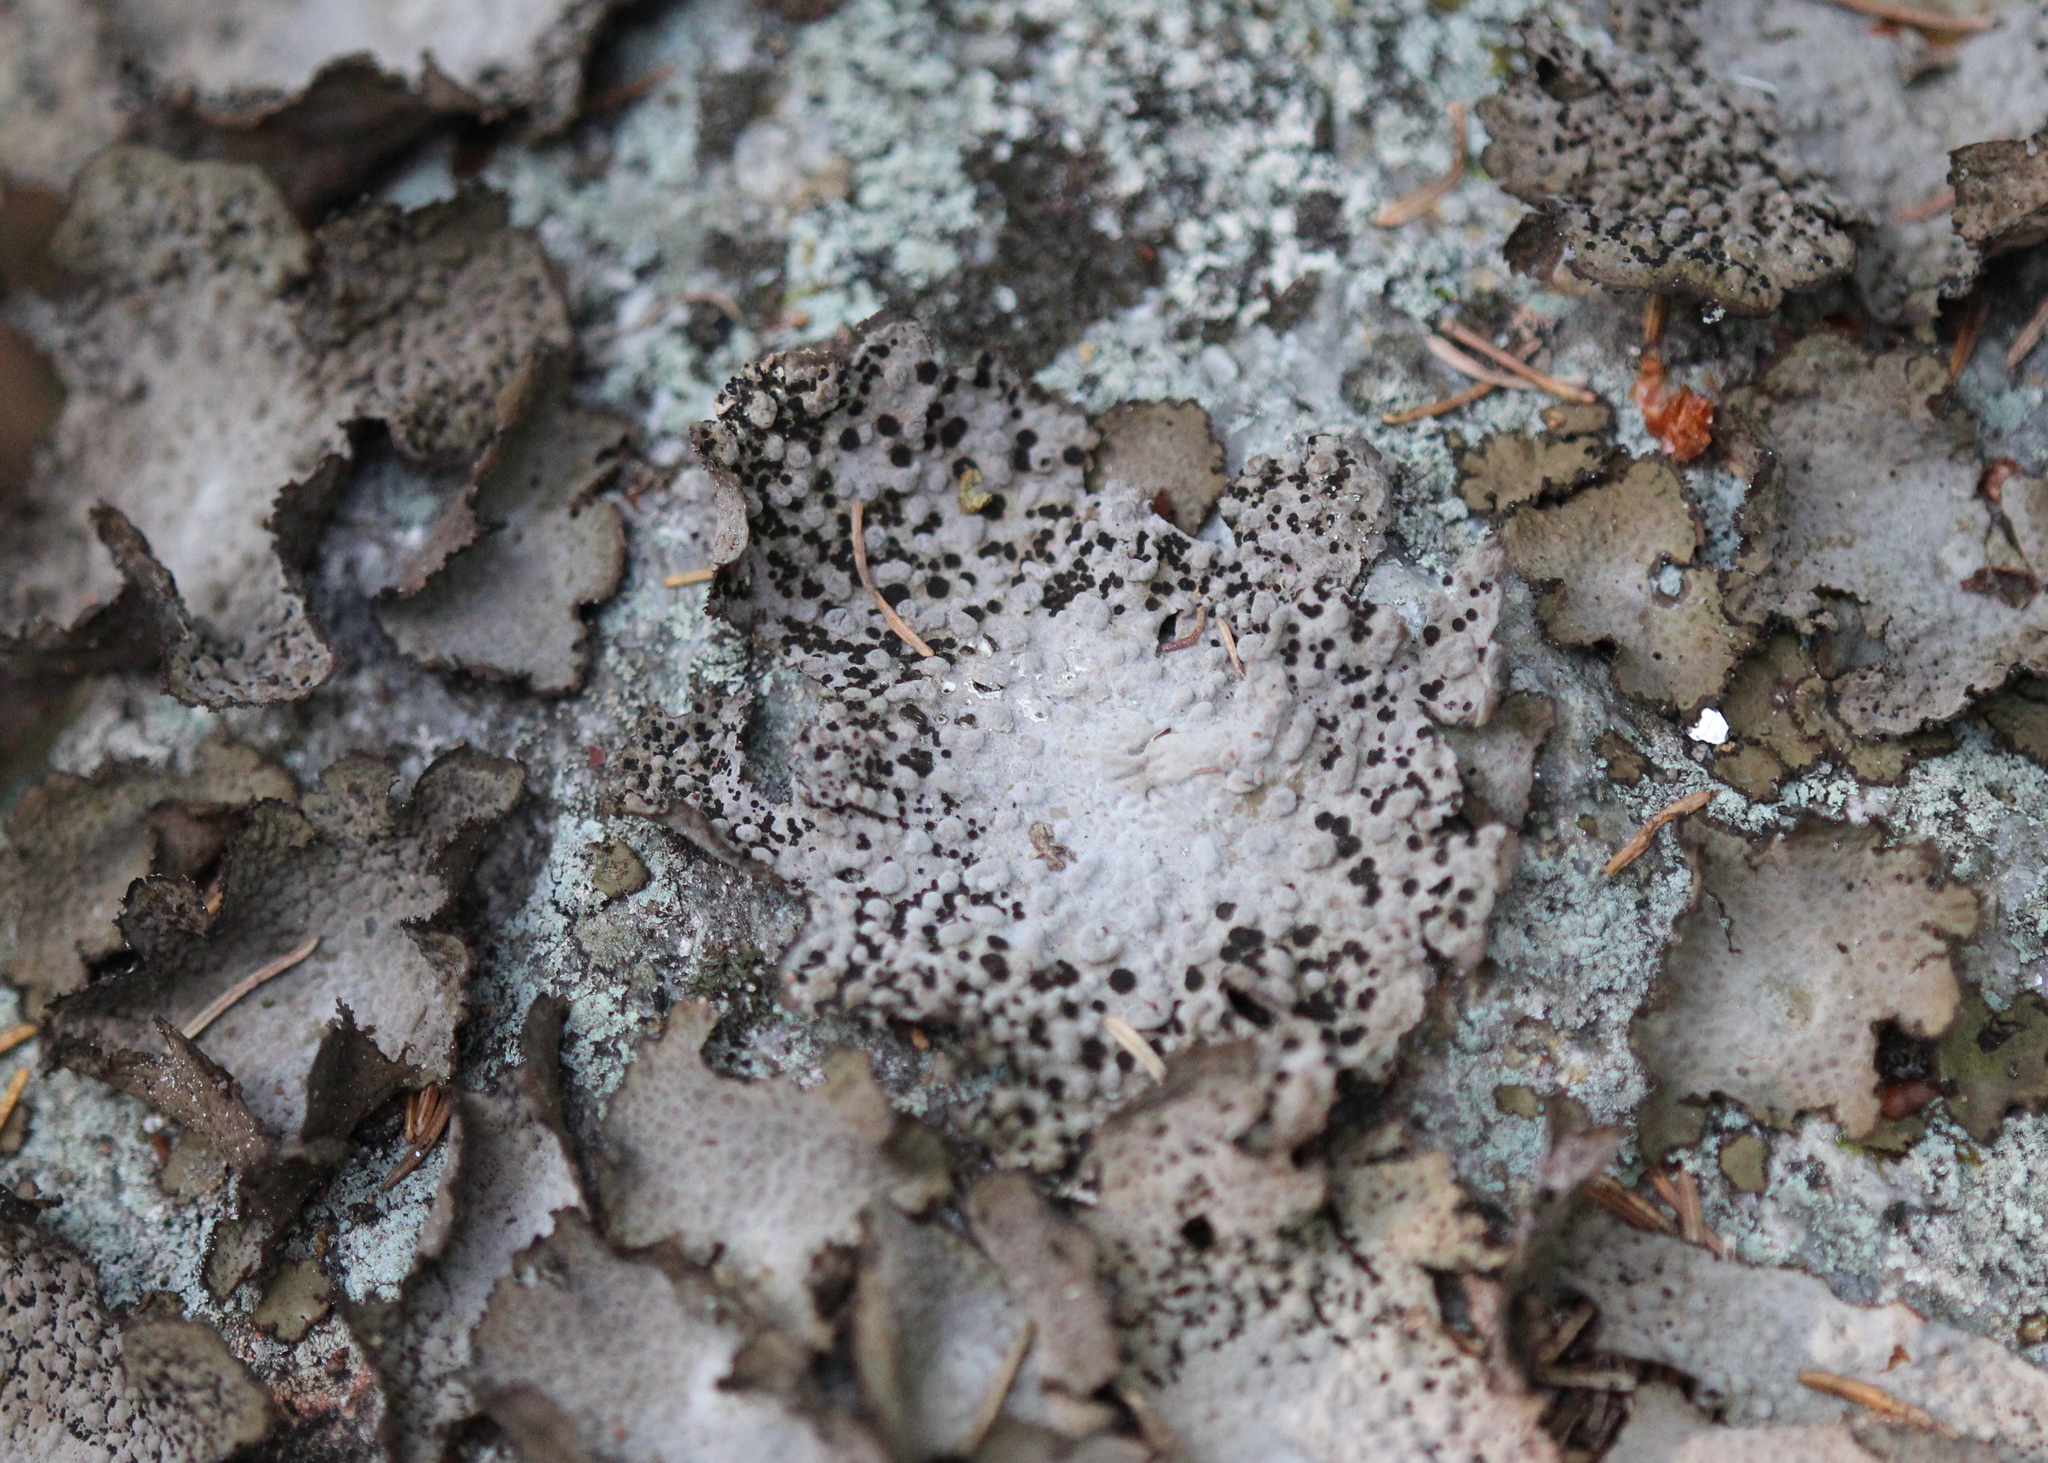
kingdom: Fungi
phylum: Ascomycota
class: Lecanoromycetes
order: Umbilicariales
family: Umbilicariaceae
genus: Lasallia
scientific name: Lasallia papulosa
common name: Common toadskin lichen
